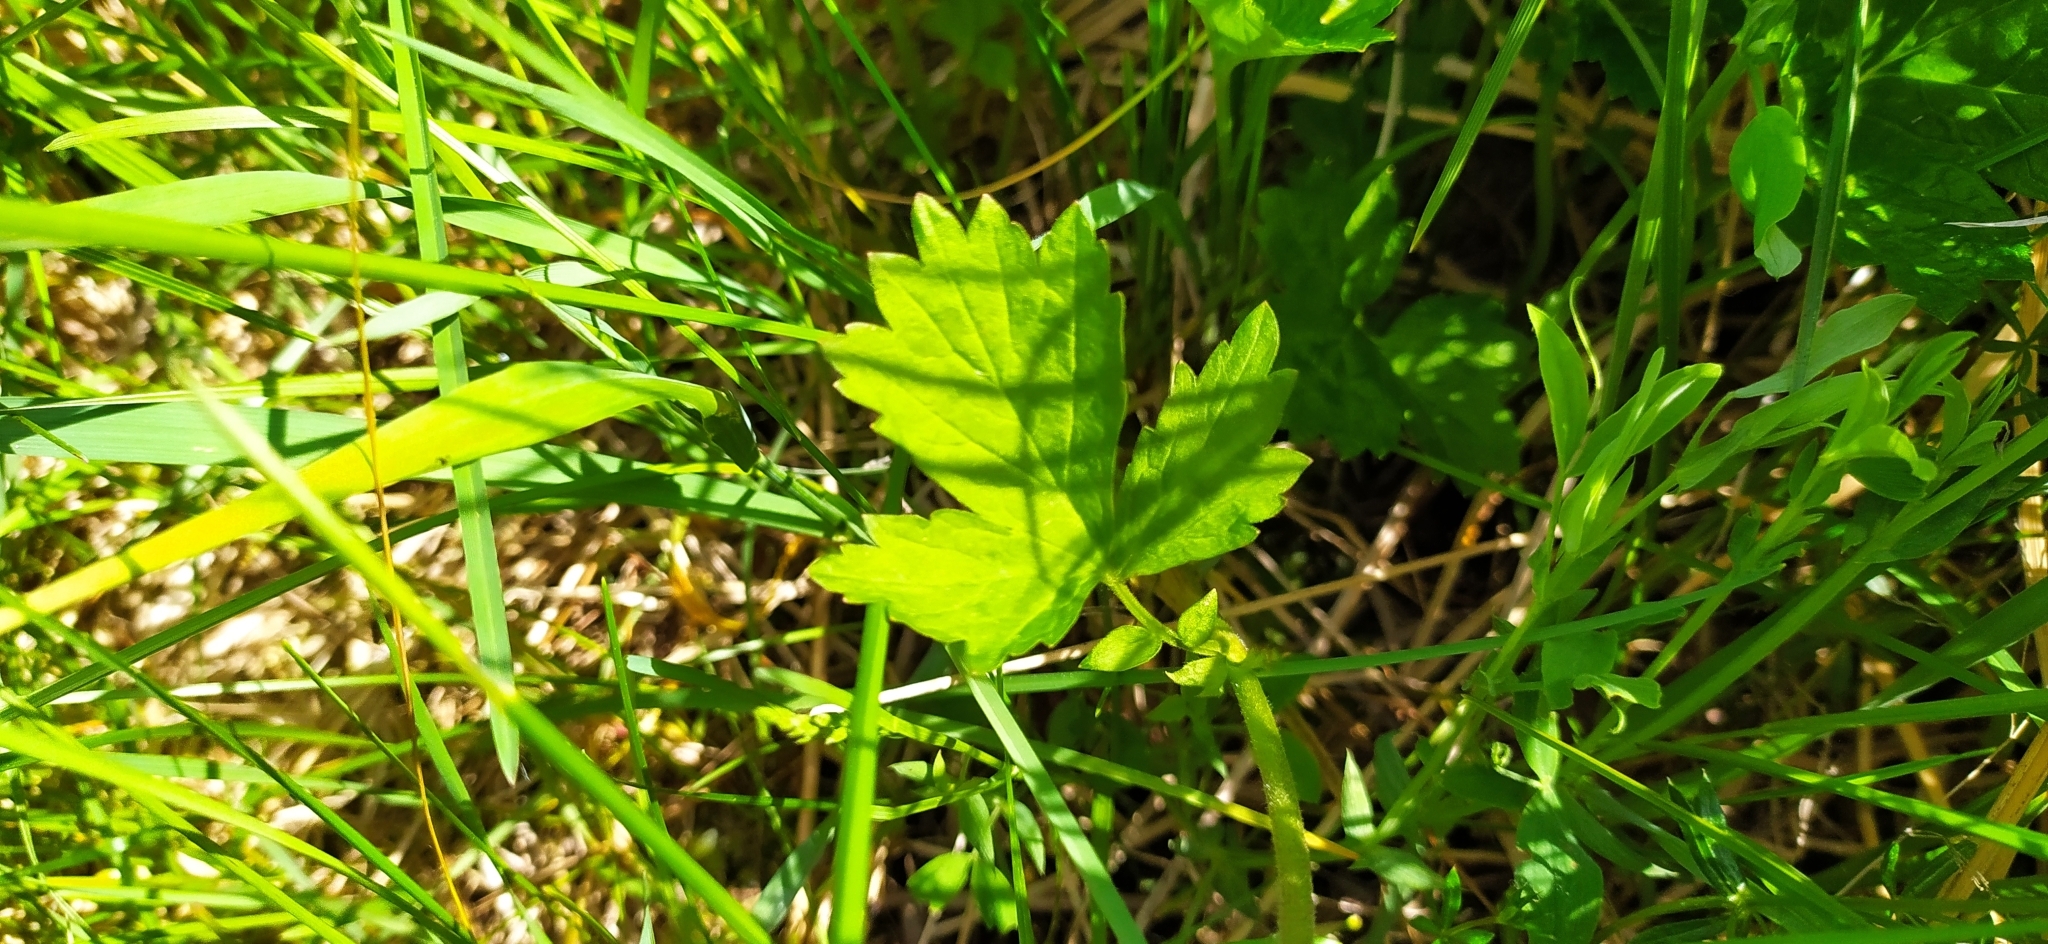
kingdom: Plantae
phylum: Tracheophyta
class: Magnoliopsida
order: Rosales
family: Rosaceae
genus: Geum
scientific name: Geum rivale
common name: Water avens
